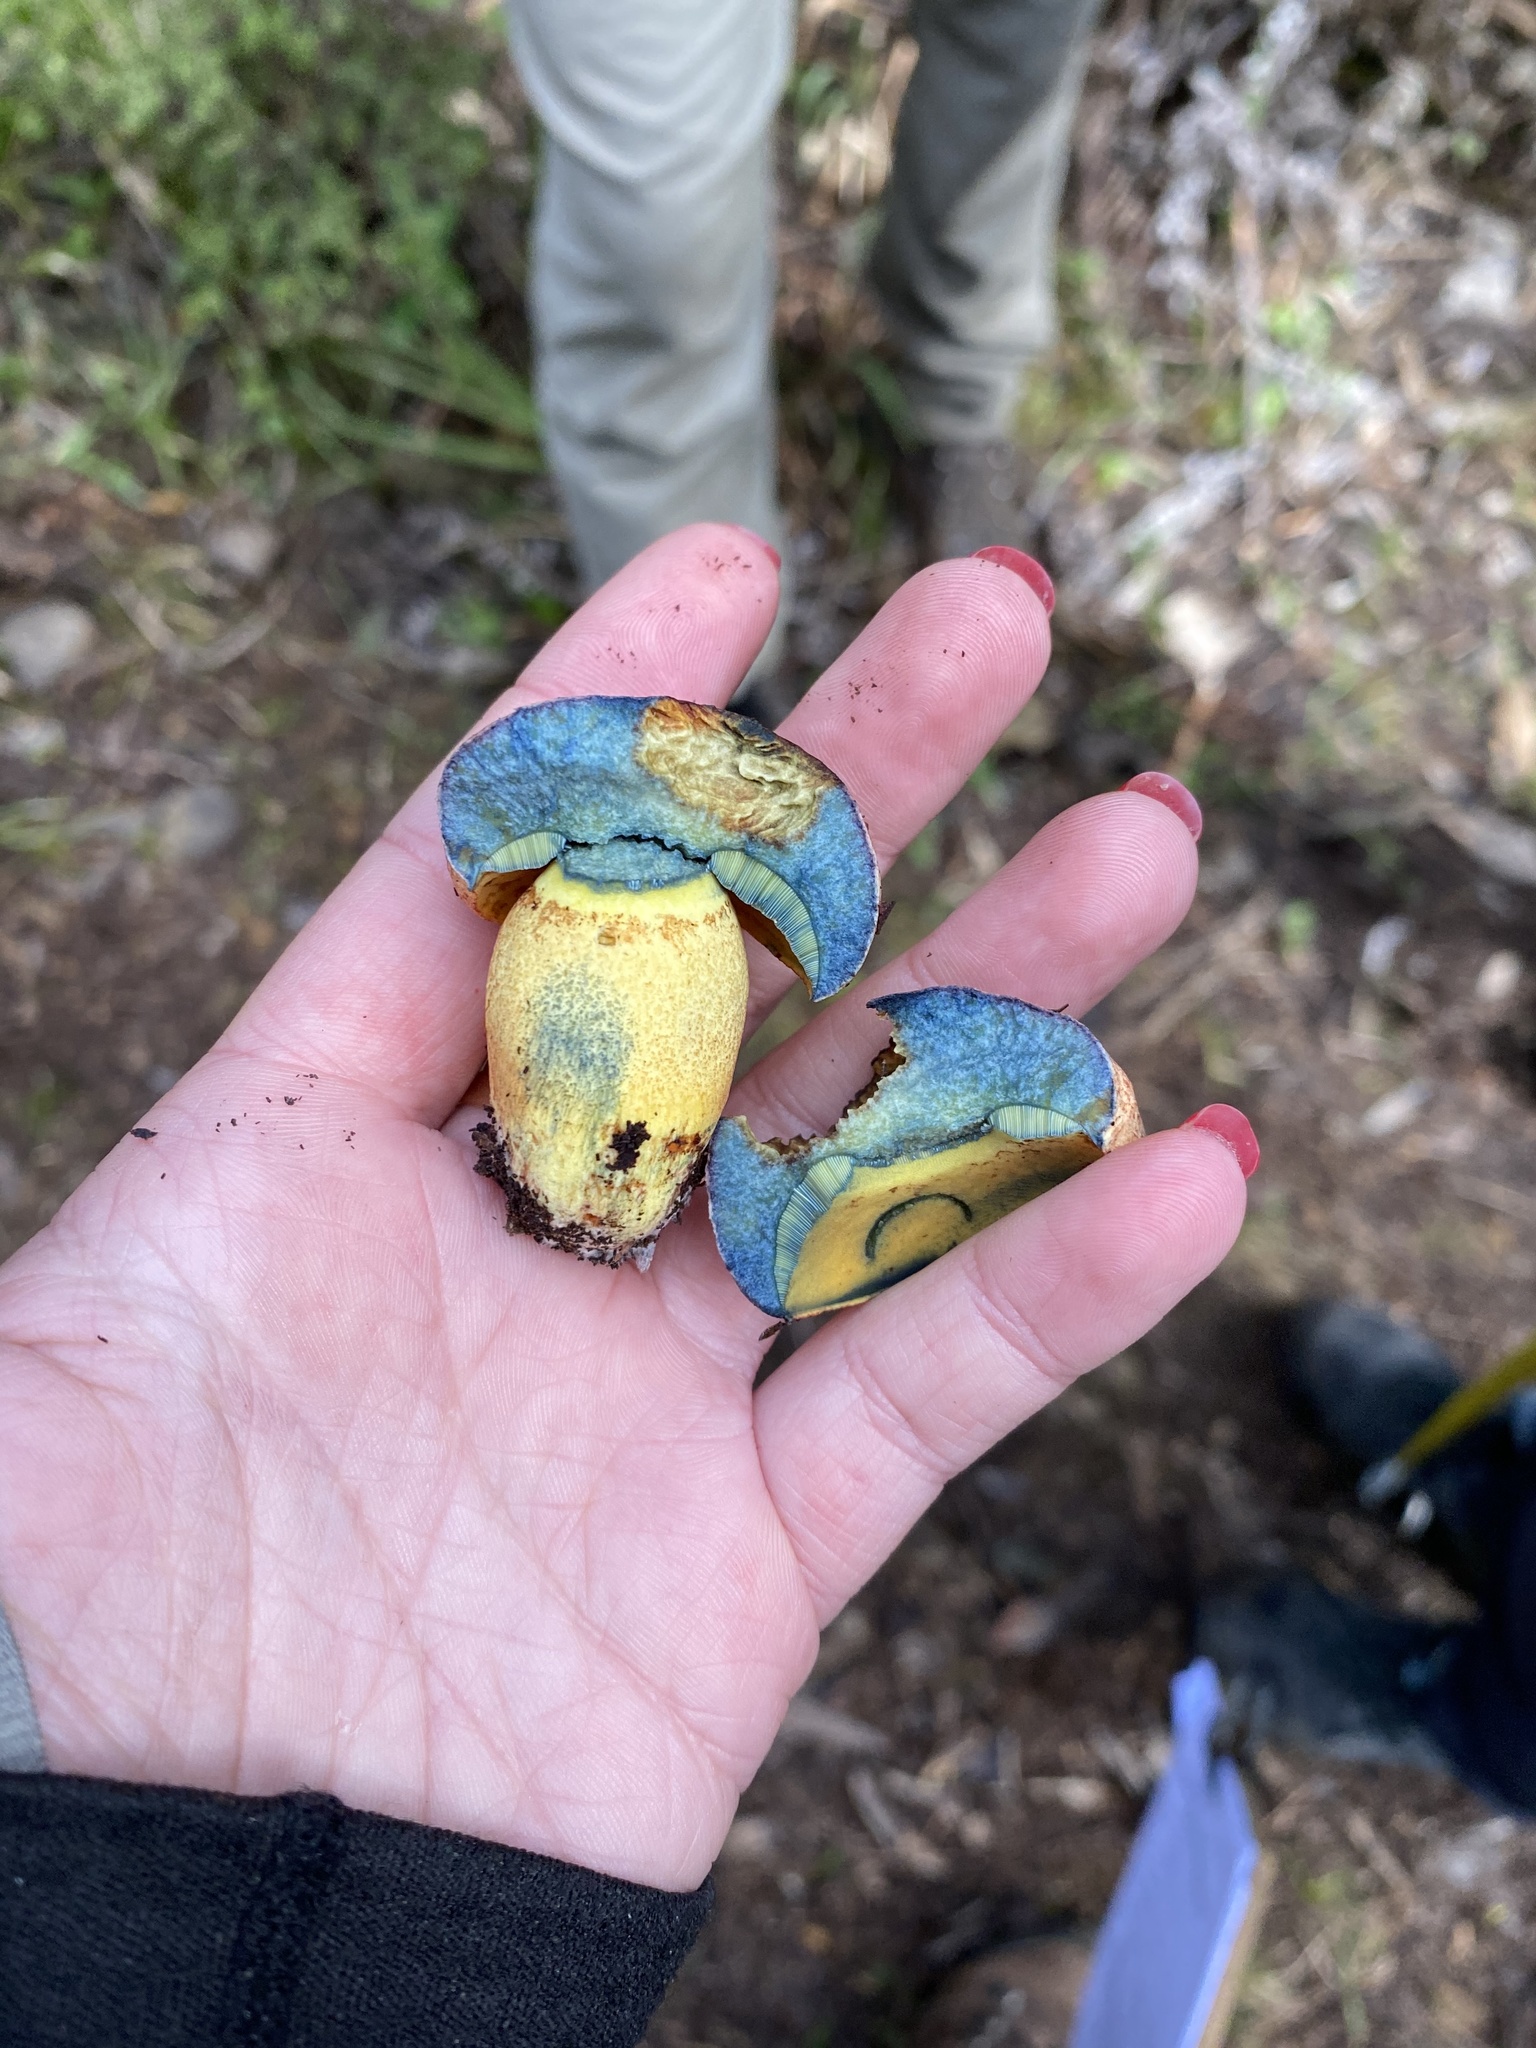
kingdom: Fungi
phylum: Basidiomycota
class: Agaricomycetes
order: Boletales
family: Boletaceae
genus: Xerocomus
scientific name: Xerocomus leptospermi
